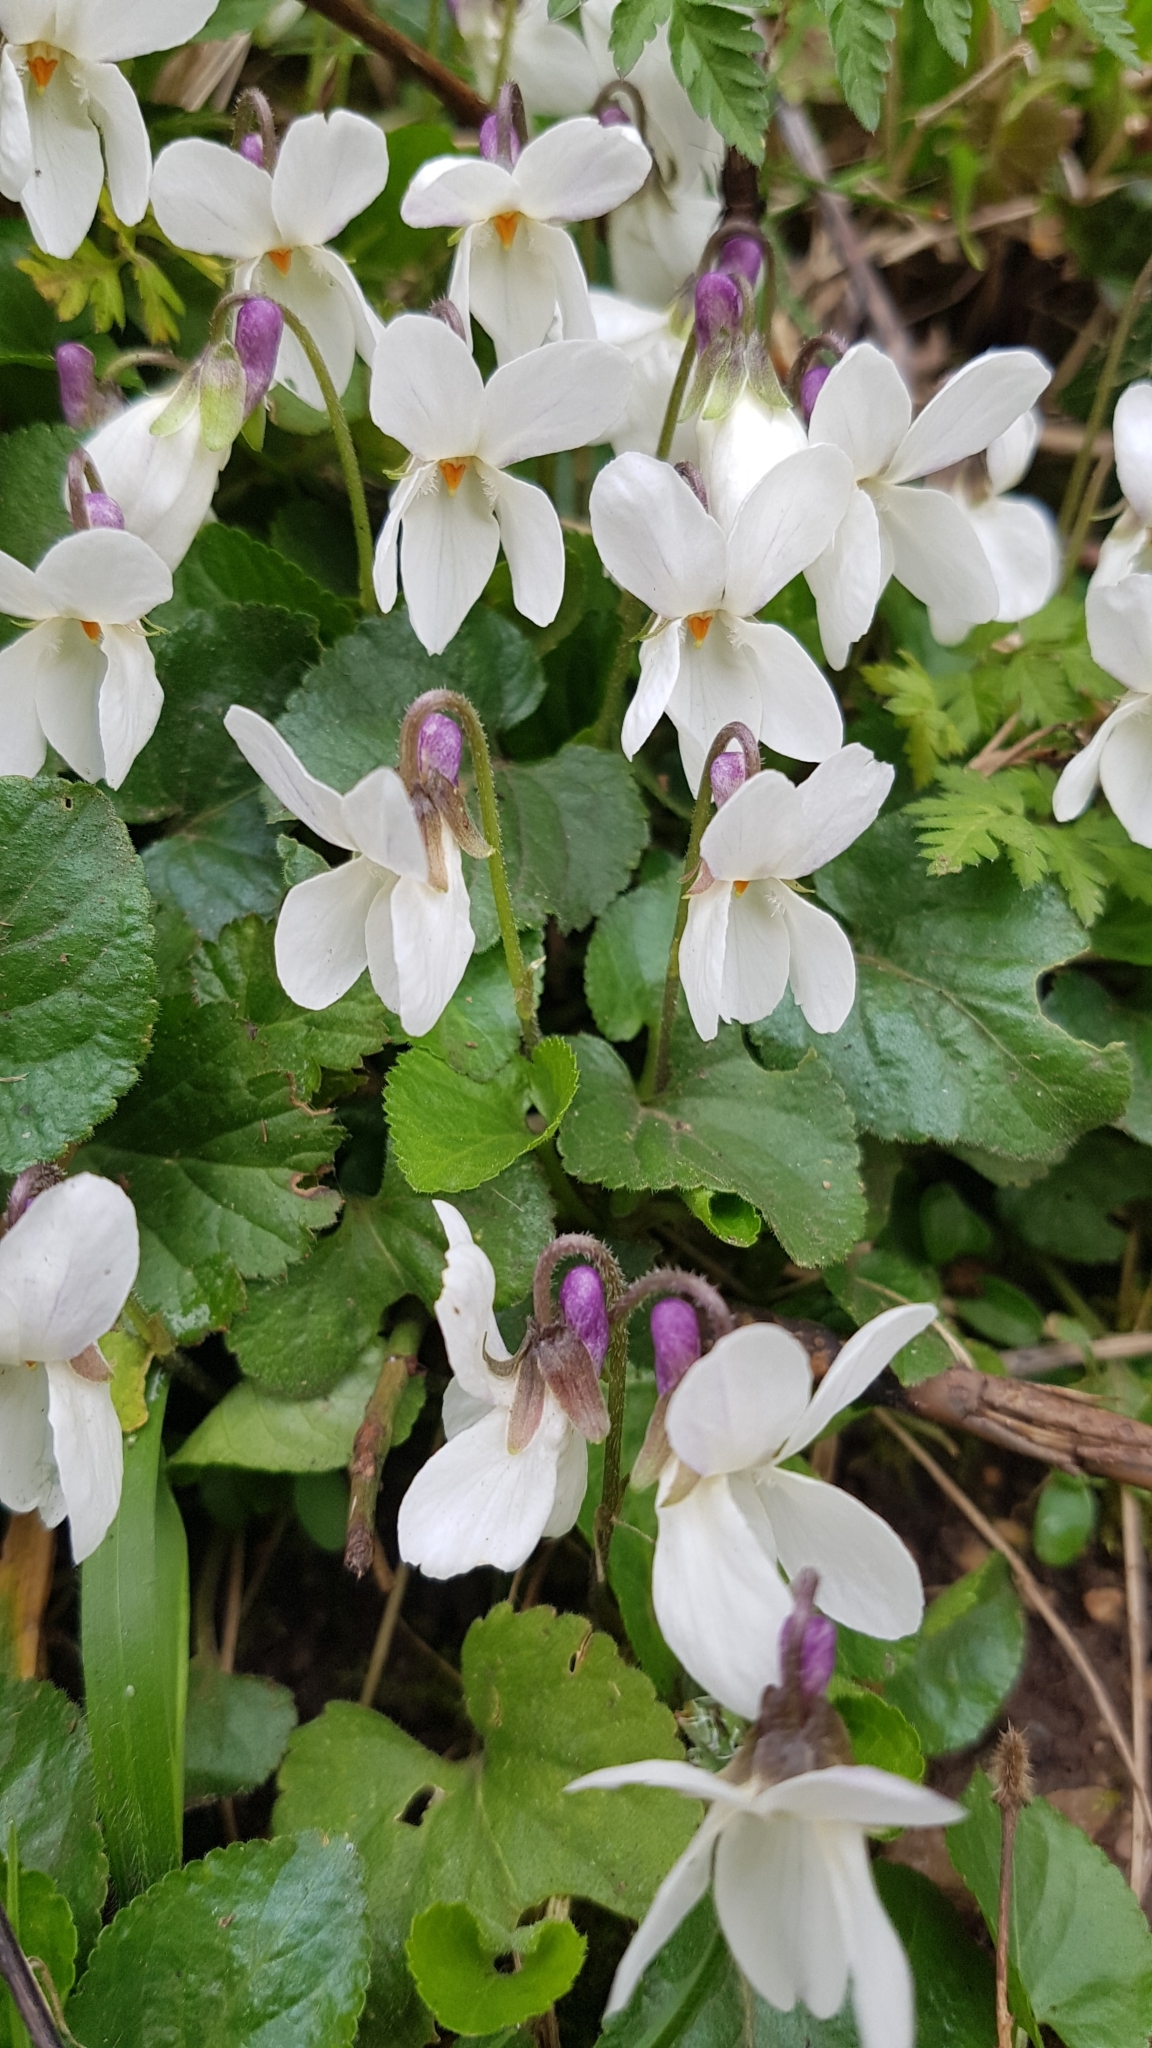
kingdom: Plantae
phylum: Tracheophyta
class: Magnoliopsida
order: Malpighiales
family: Violaceae
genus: Viola
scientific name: Viola odorata
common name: Sweet violet
